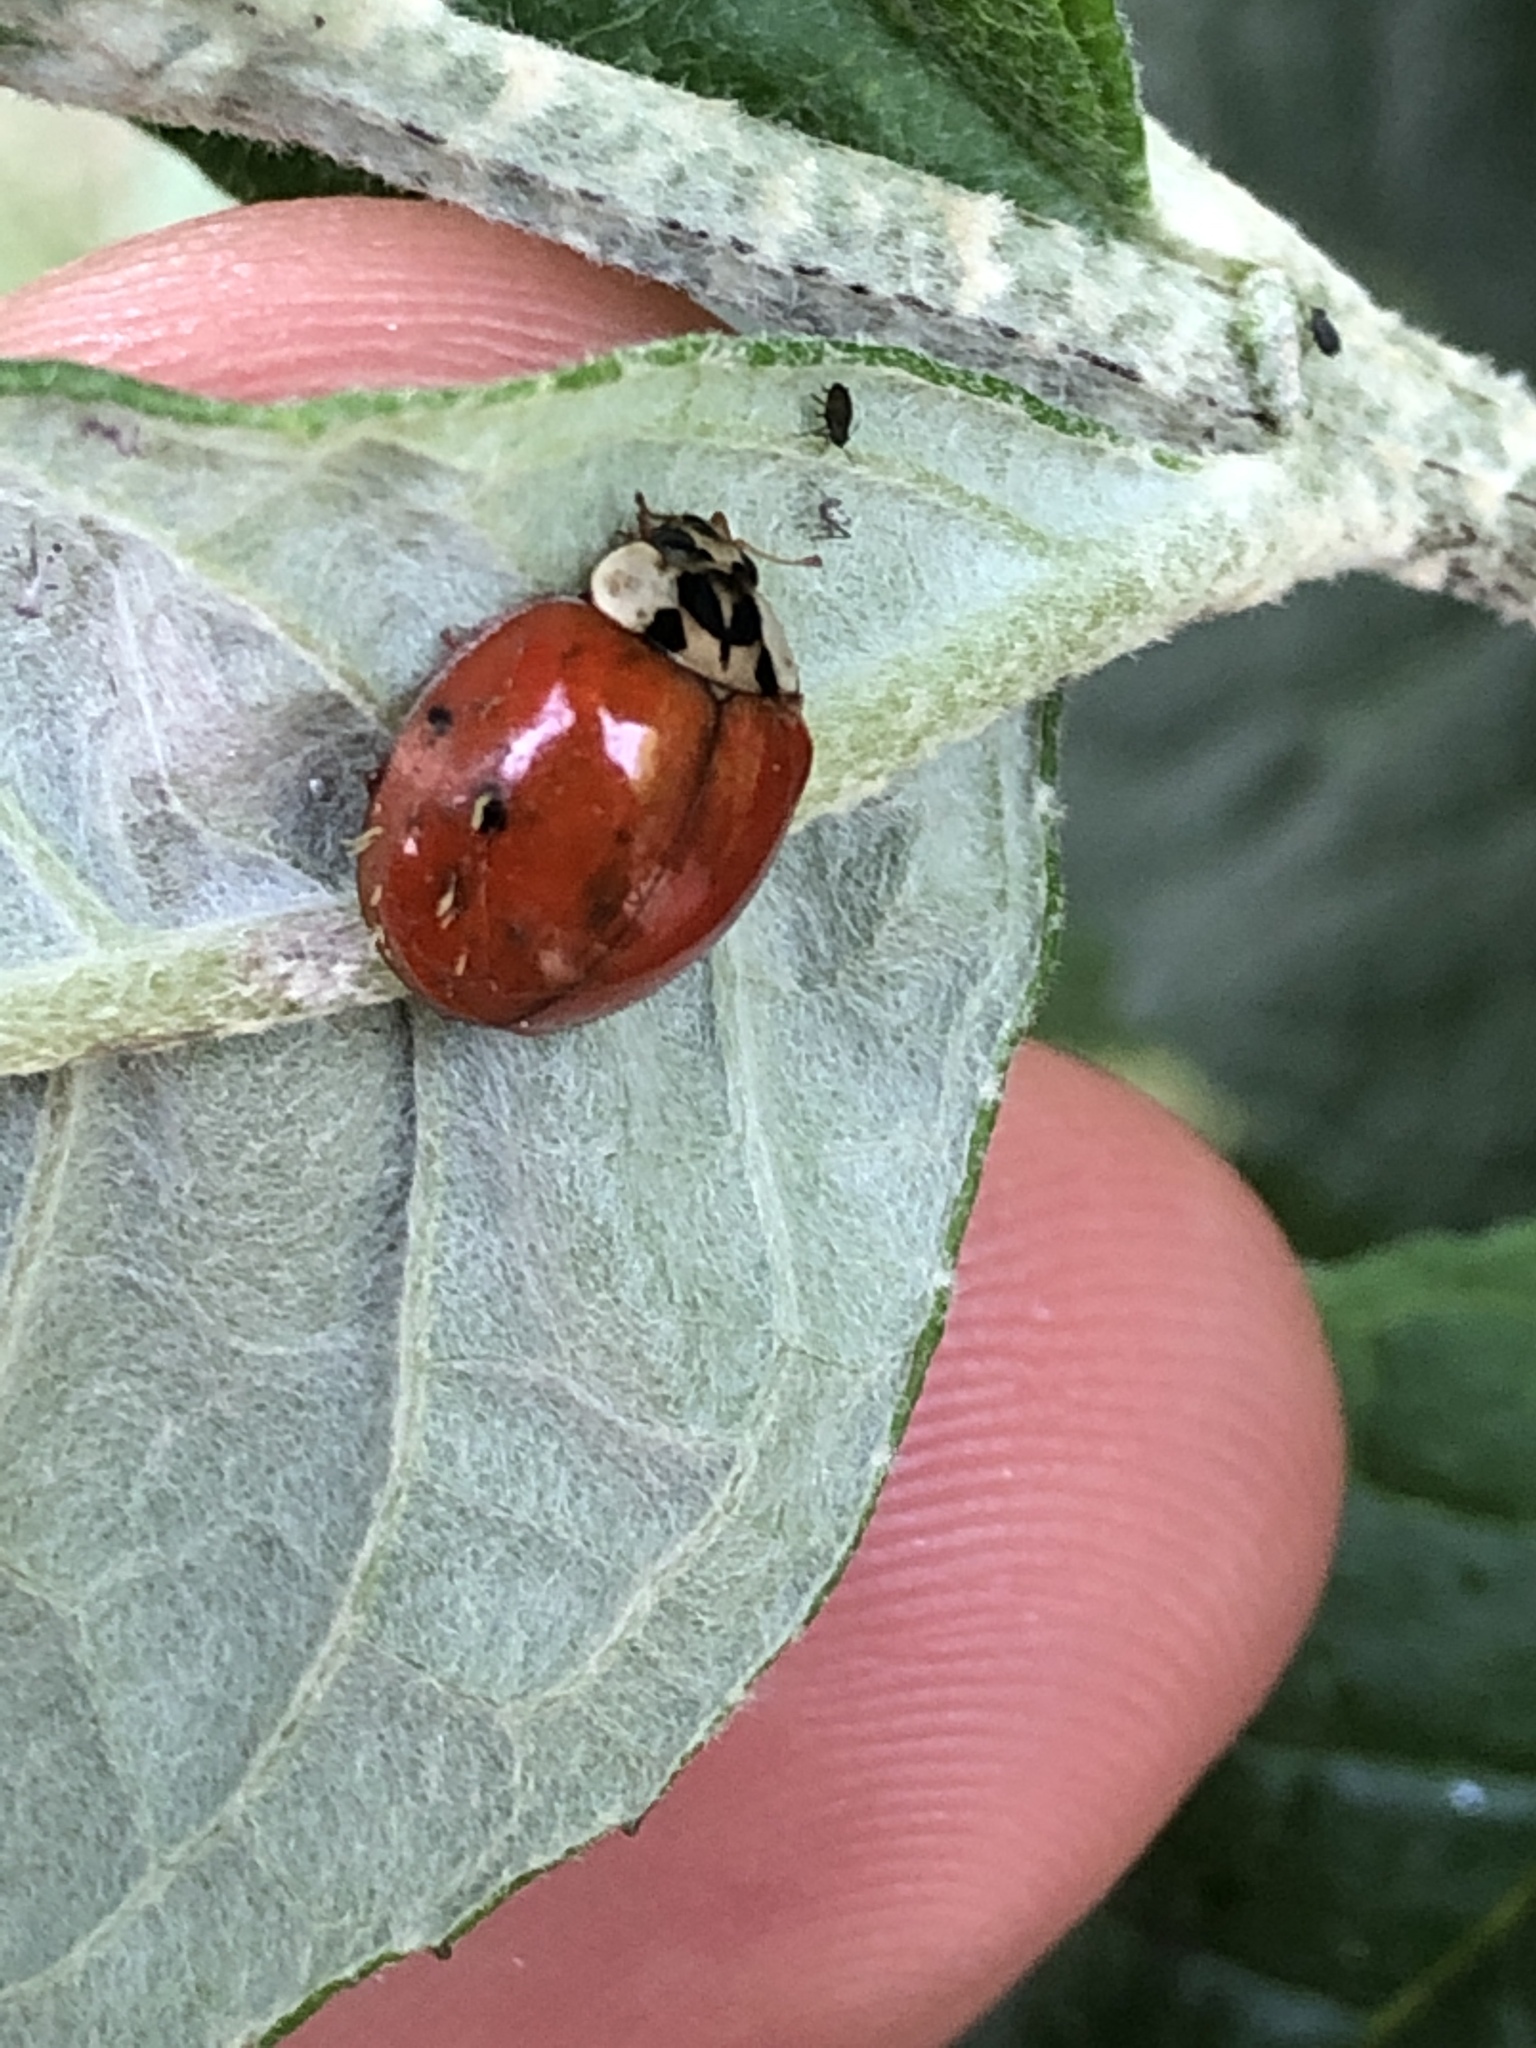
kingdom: Fungi
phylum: Ascomycota
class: Laboulbeniomycetes
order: Laboulbeniales
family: Laboulbeniaceae
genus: Hesperomyces
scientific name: Hesperomyces harmoniae
